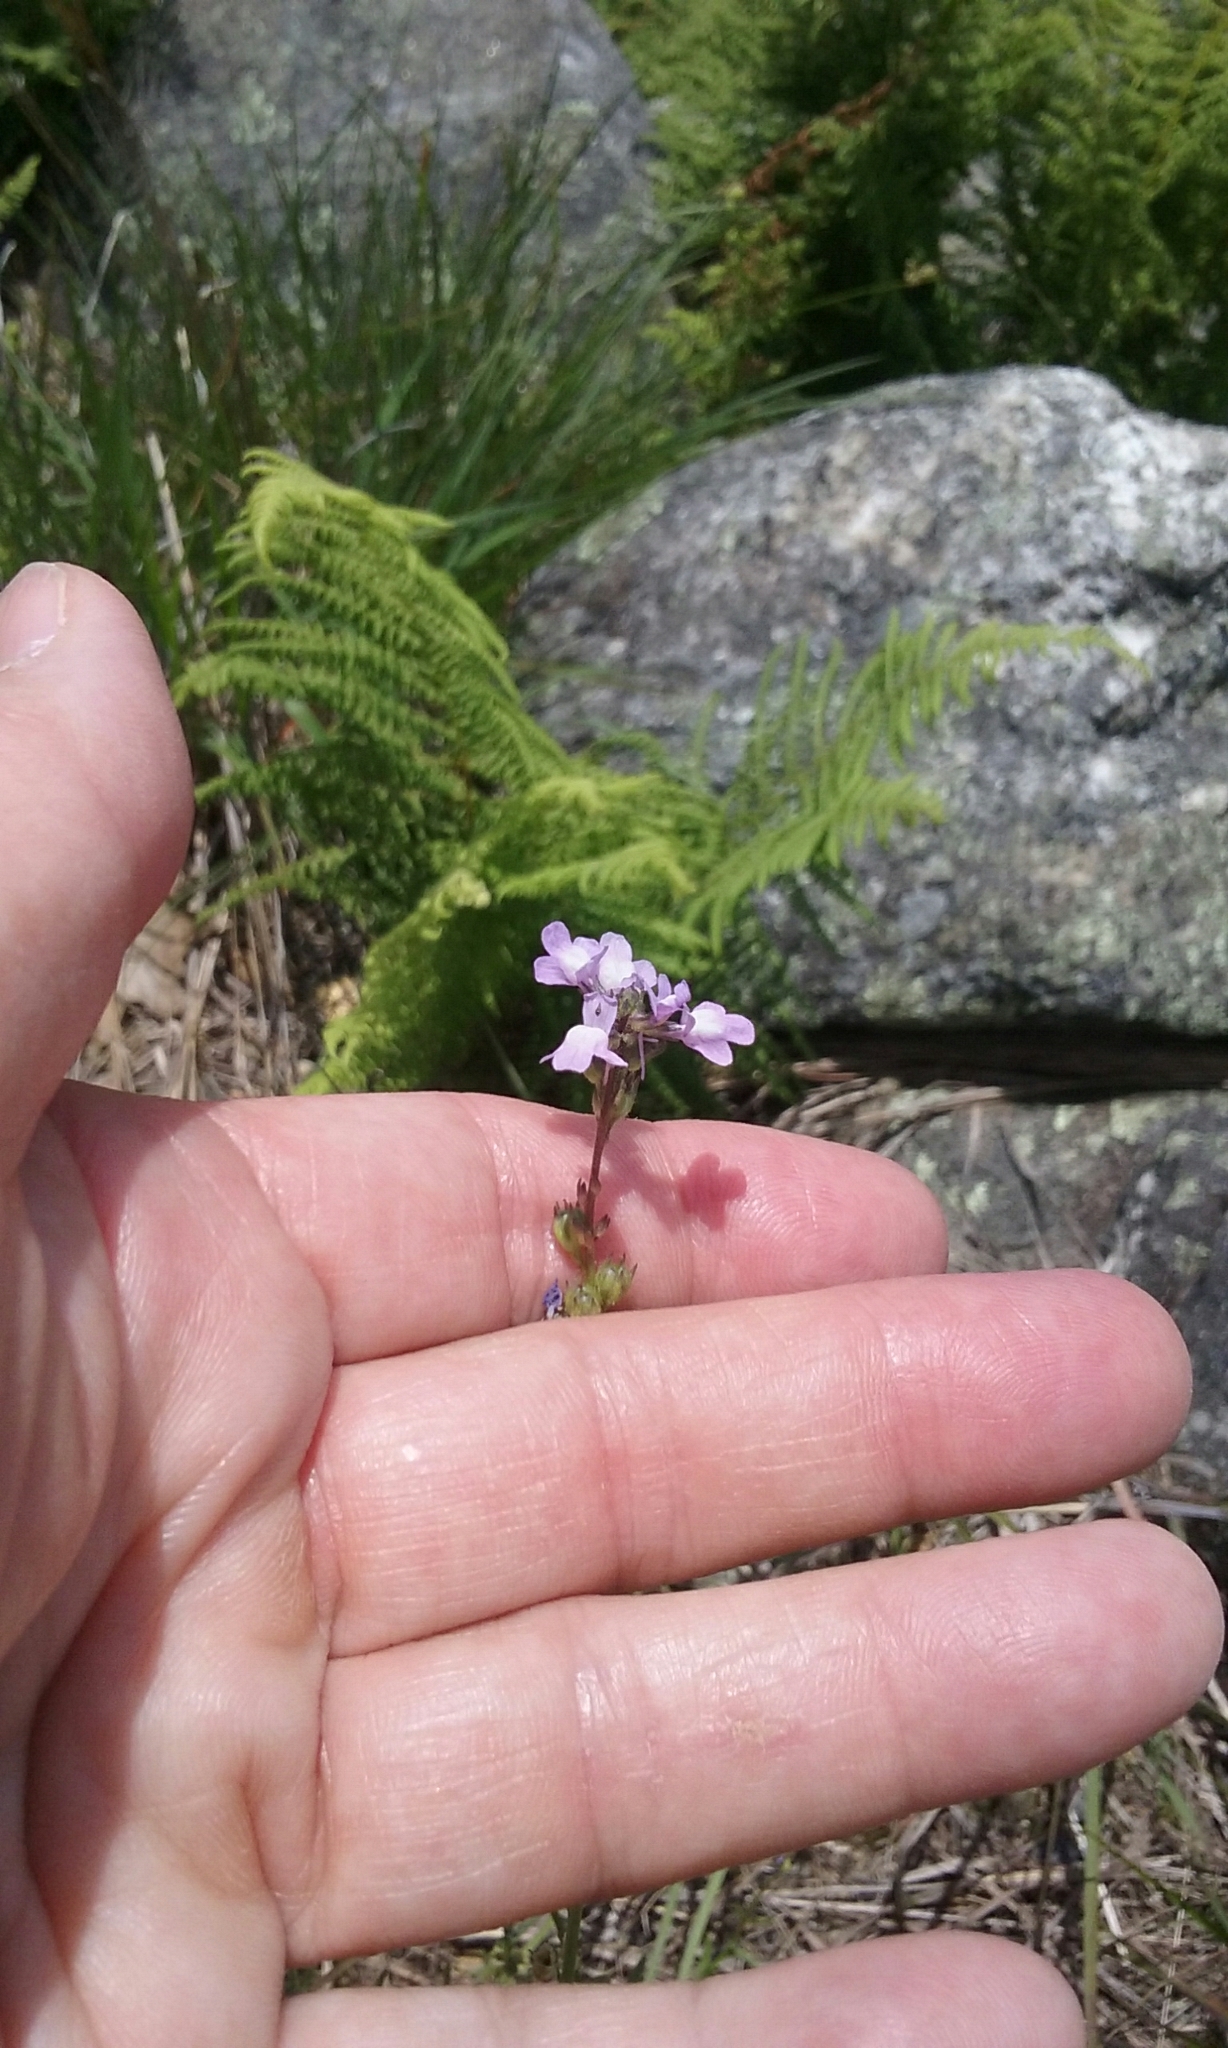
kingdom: Plantae
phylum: Tracheophyta
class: Magnoliopsida
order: Lamiales
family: Plantaginaceae
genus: Nuttallanthus
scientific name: Nuttallanthus canadensis
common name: Blue toadflax
